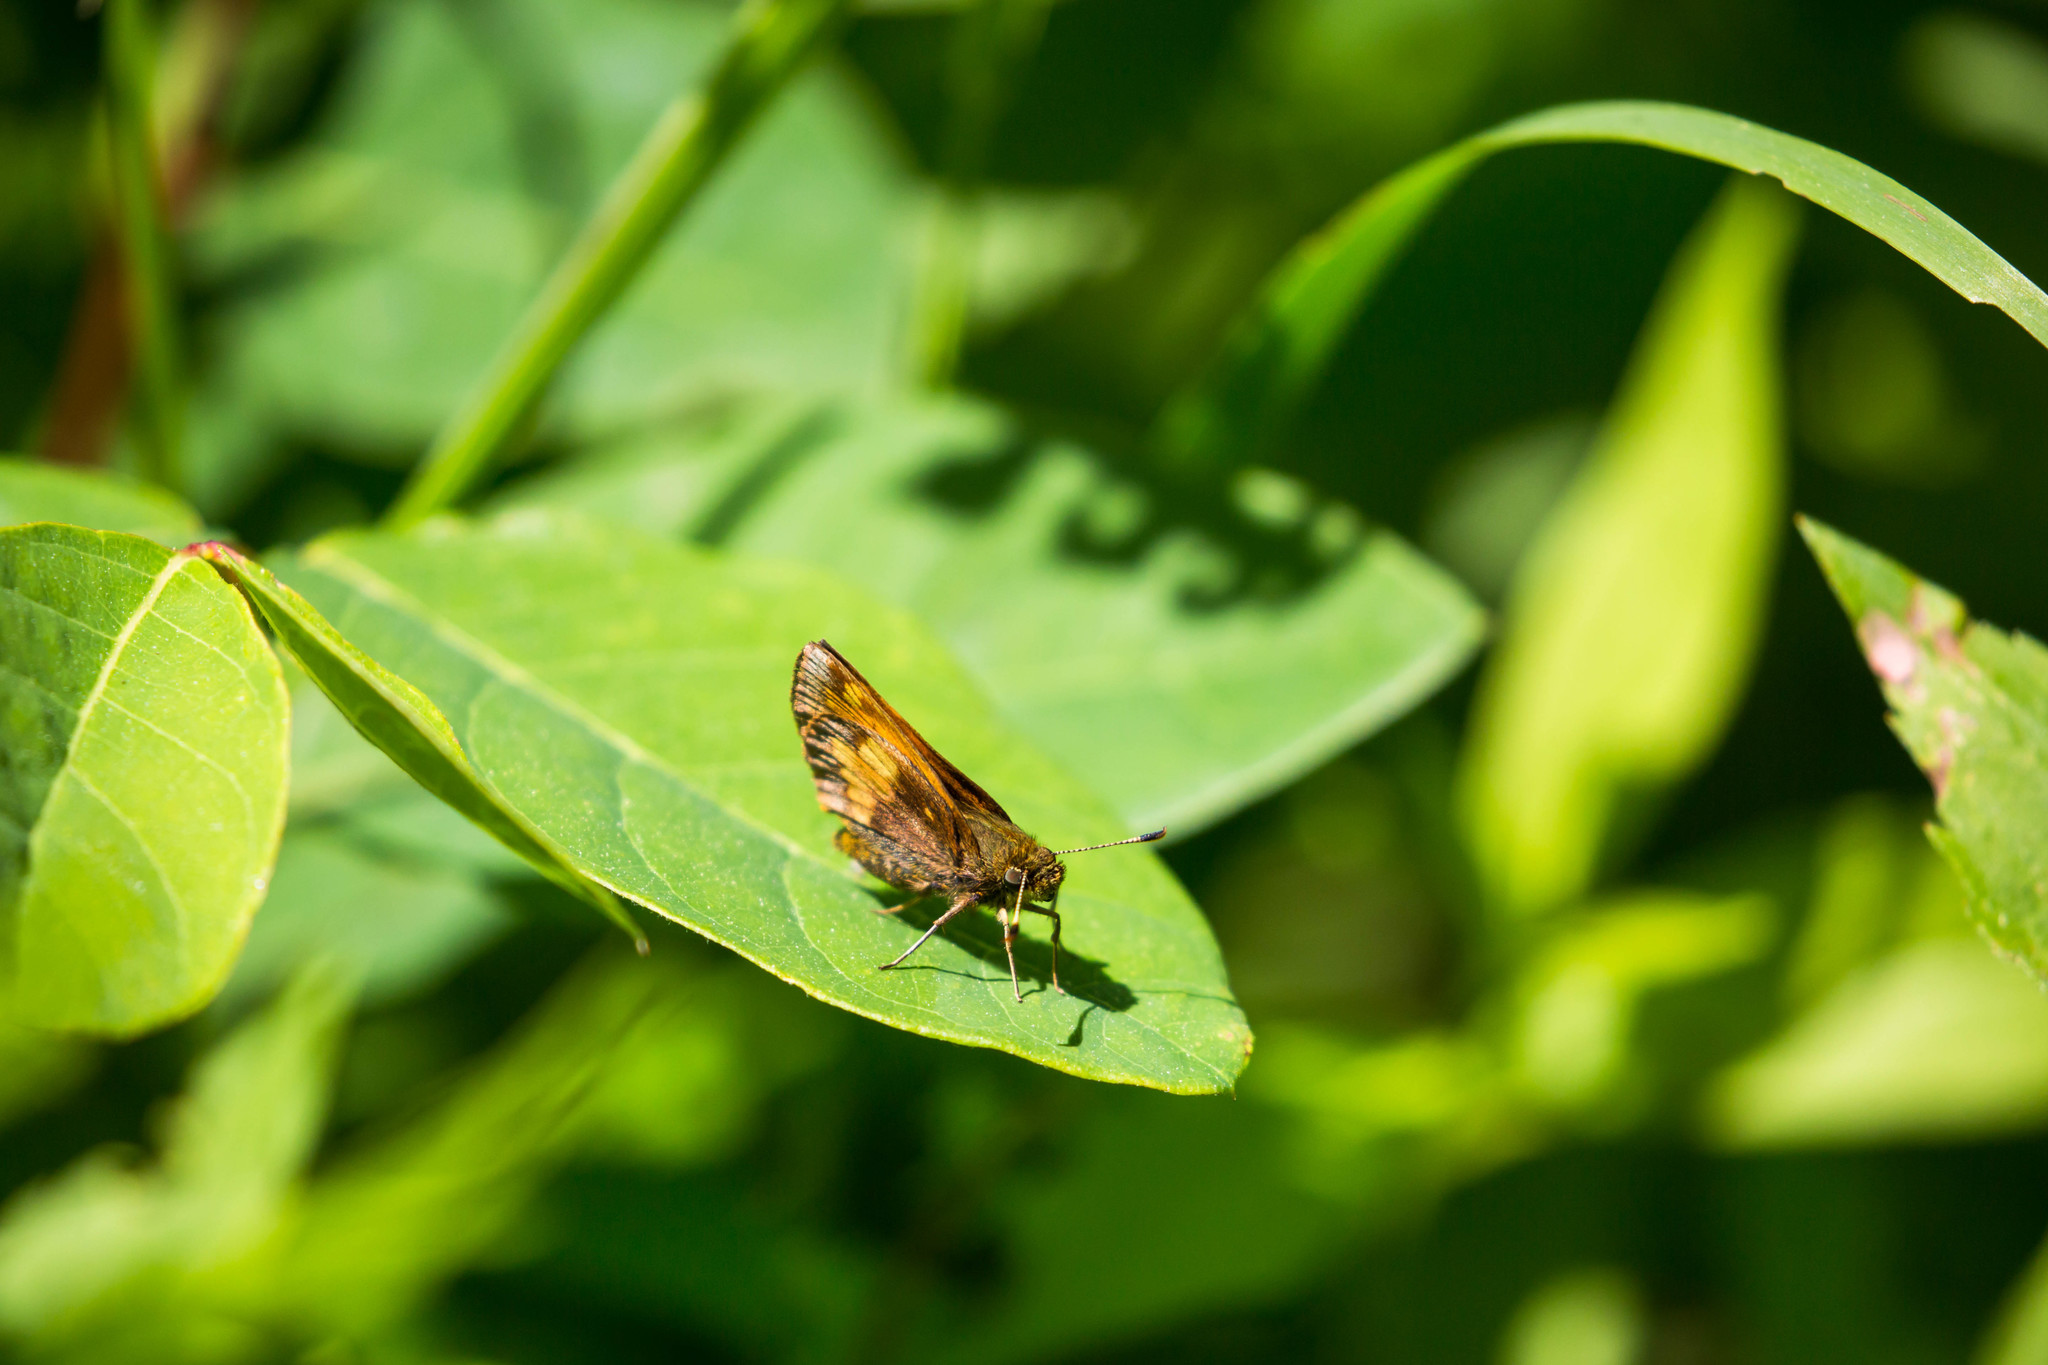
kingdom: Animalia
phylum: Arthropoda
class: Insecta
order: Lepidoptera
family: Hesperiidae
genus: Lon
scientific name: Lon hobomok
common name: Hobomok skipper
